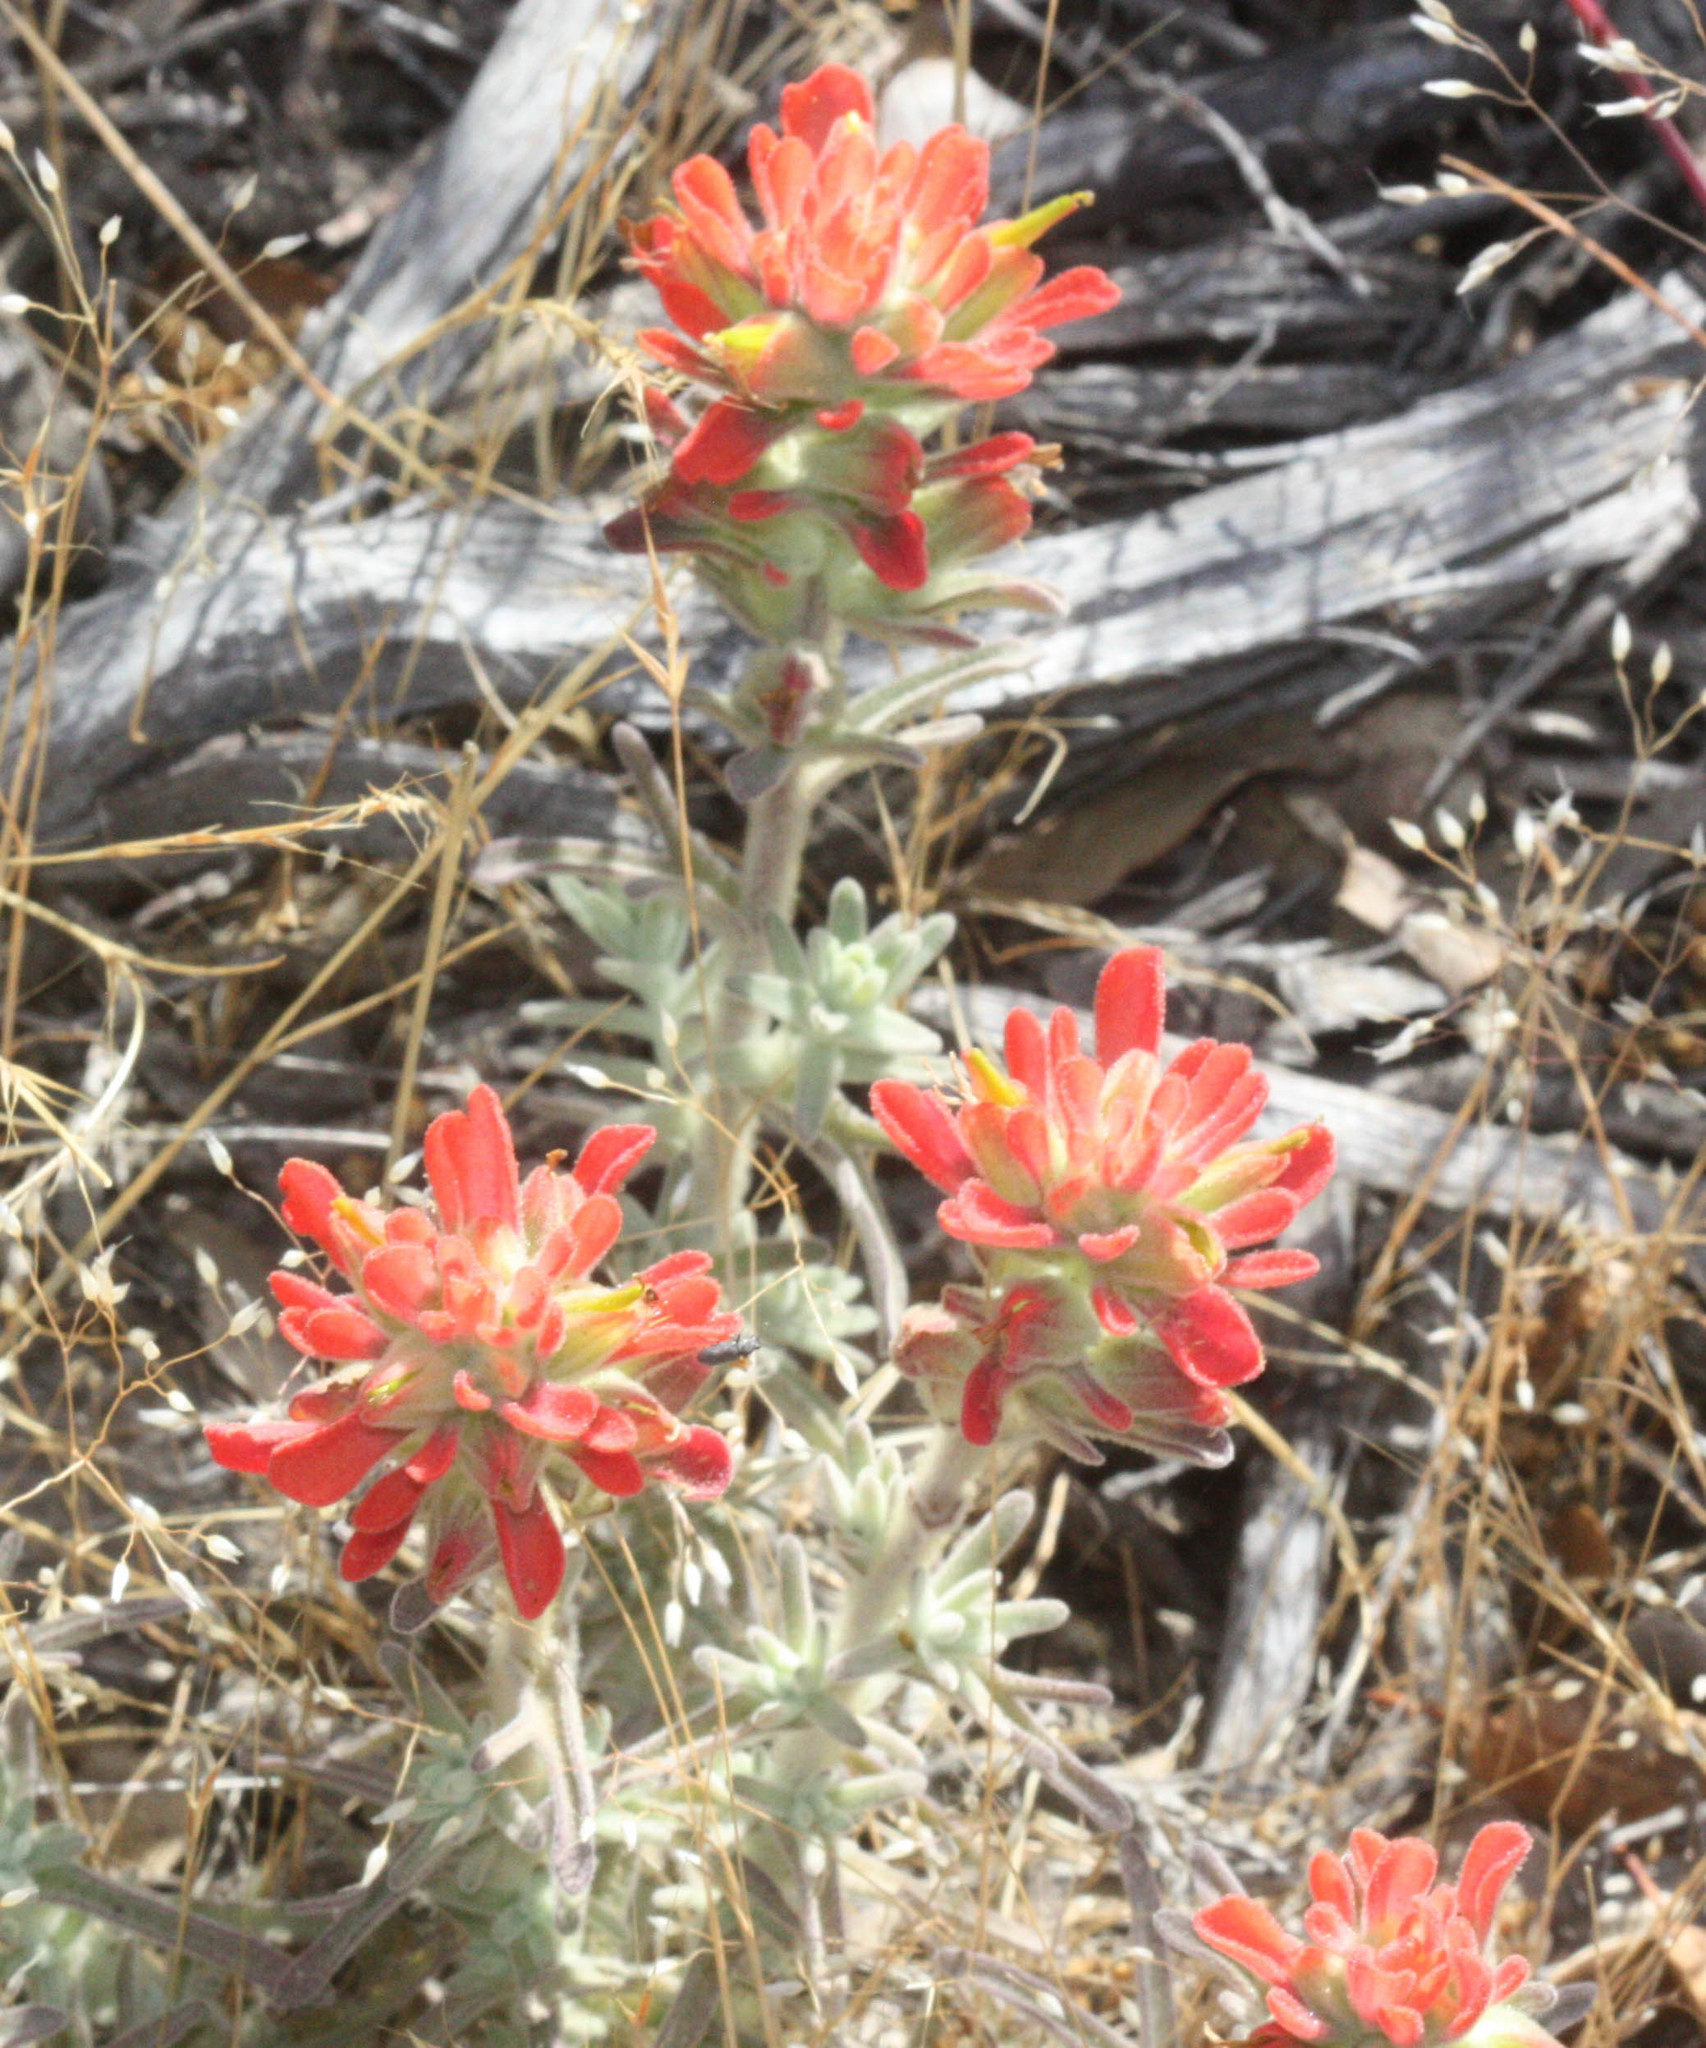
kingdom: Plantae
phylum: Tracheophyta
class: Magnoliopsida
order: Lamiales
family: Orobanchaceae
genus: Castilleja
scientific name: Castilleja foliolosa
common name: Woolly indian paintbrush
